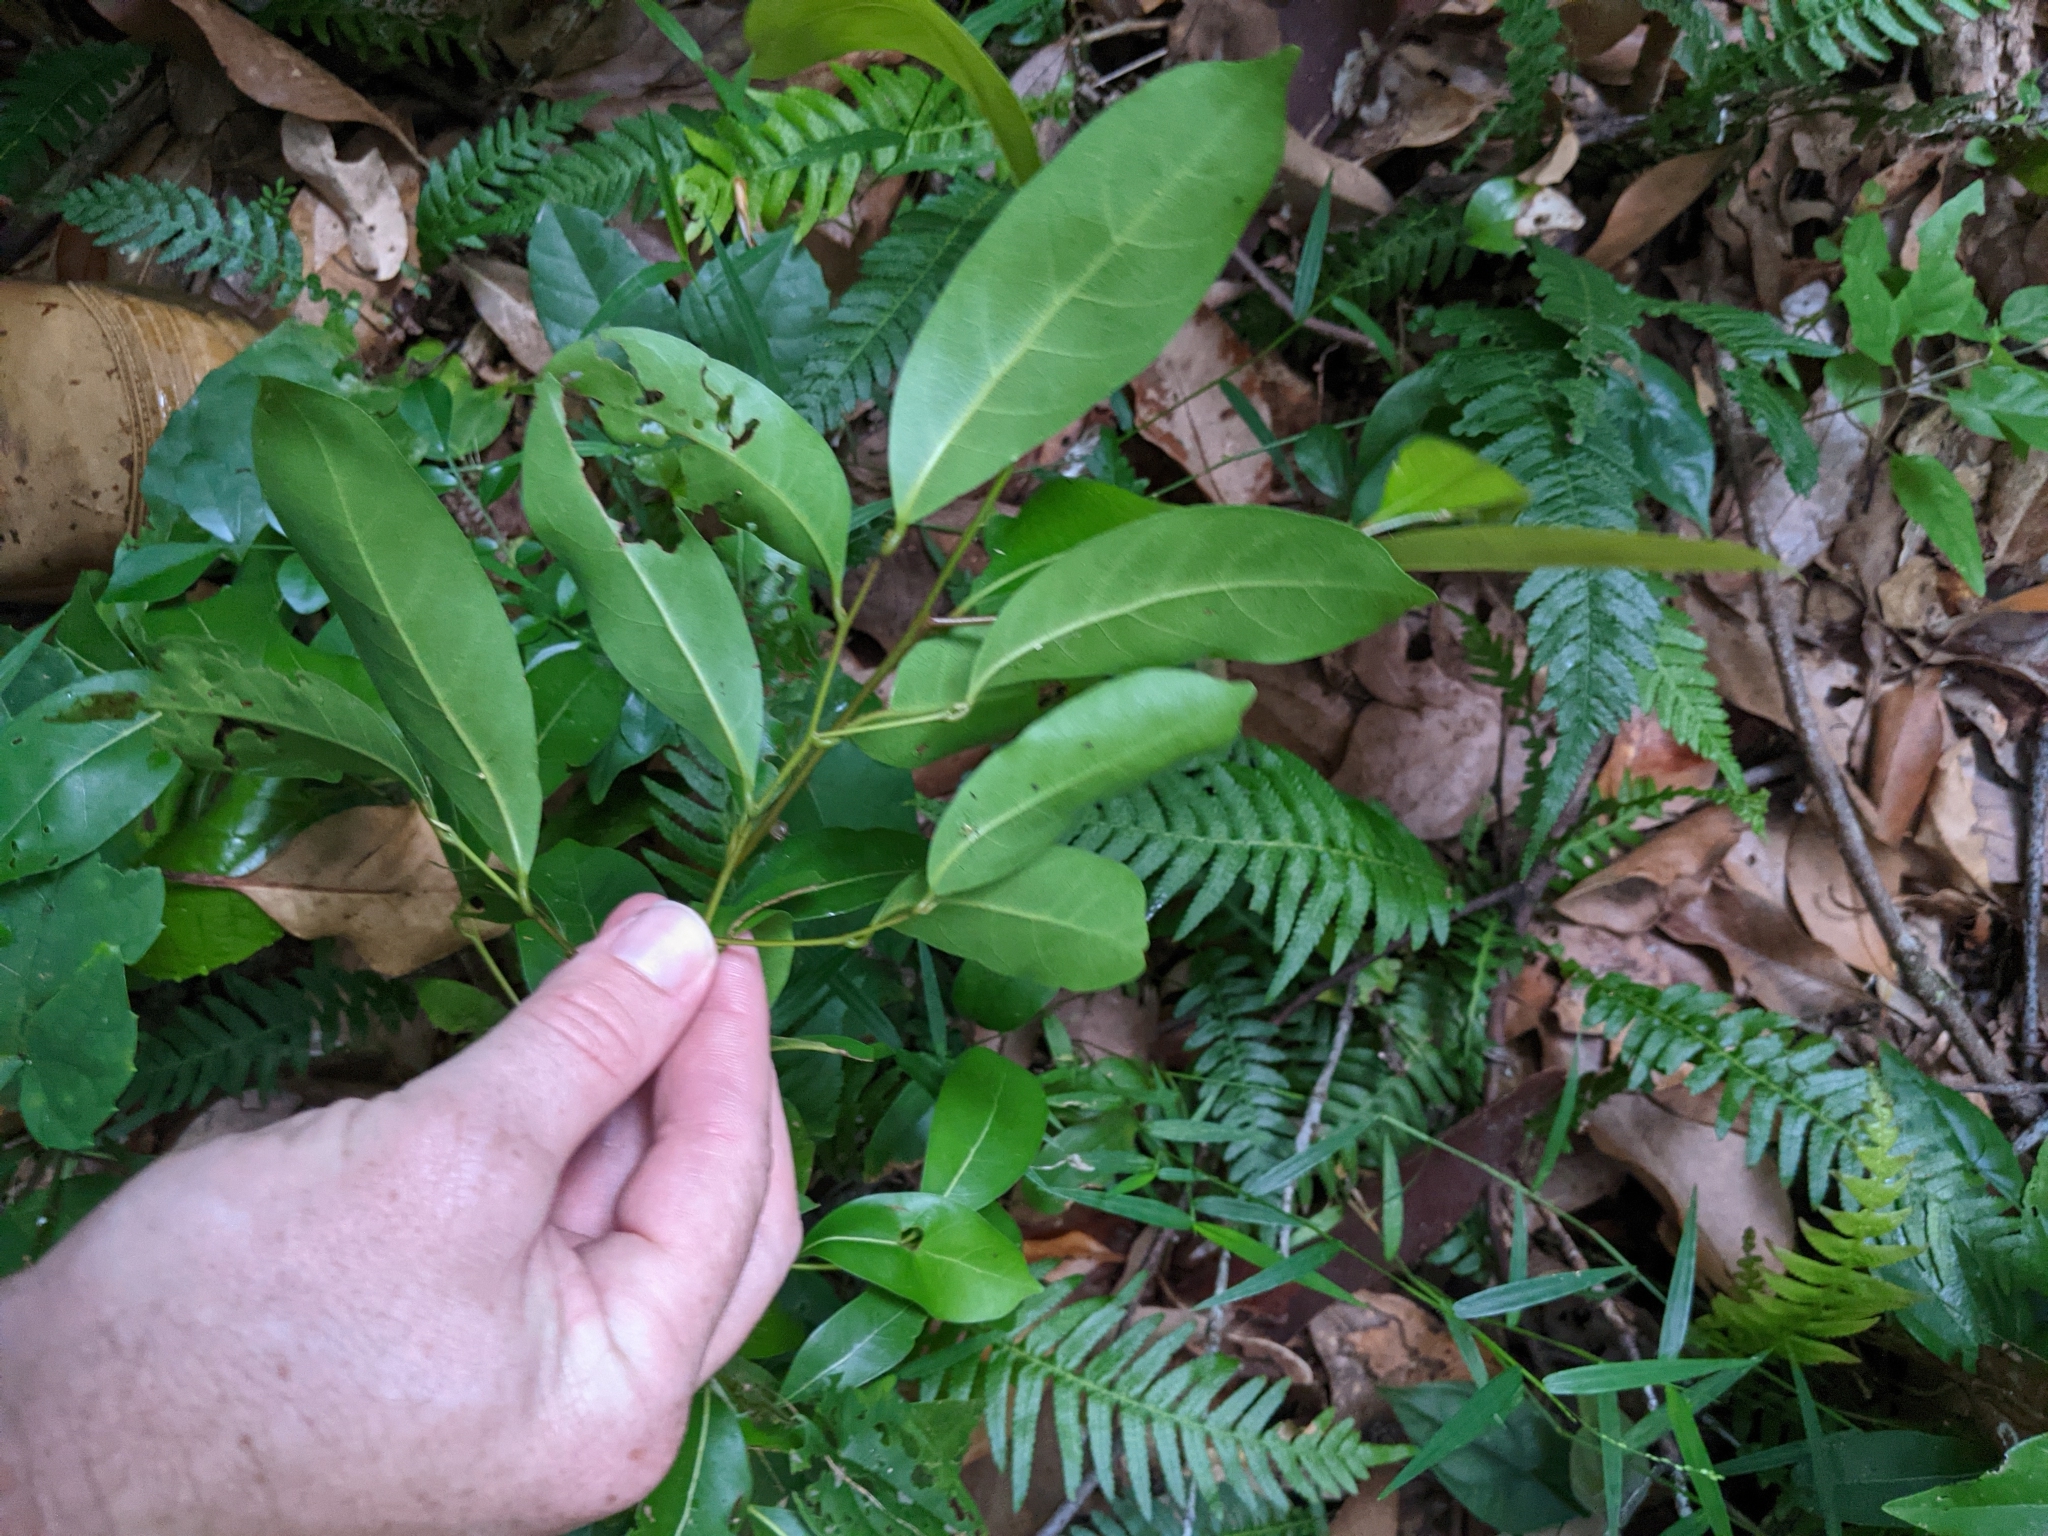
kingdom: Plantae
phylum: Tracheophyta
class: Magnoliopsida
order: Laurales
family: Lauraceae
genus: Cryptocarya
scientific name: Cryptocarya microneura
